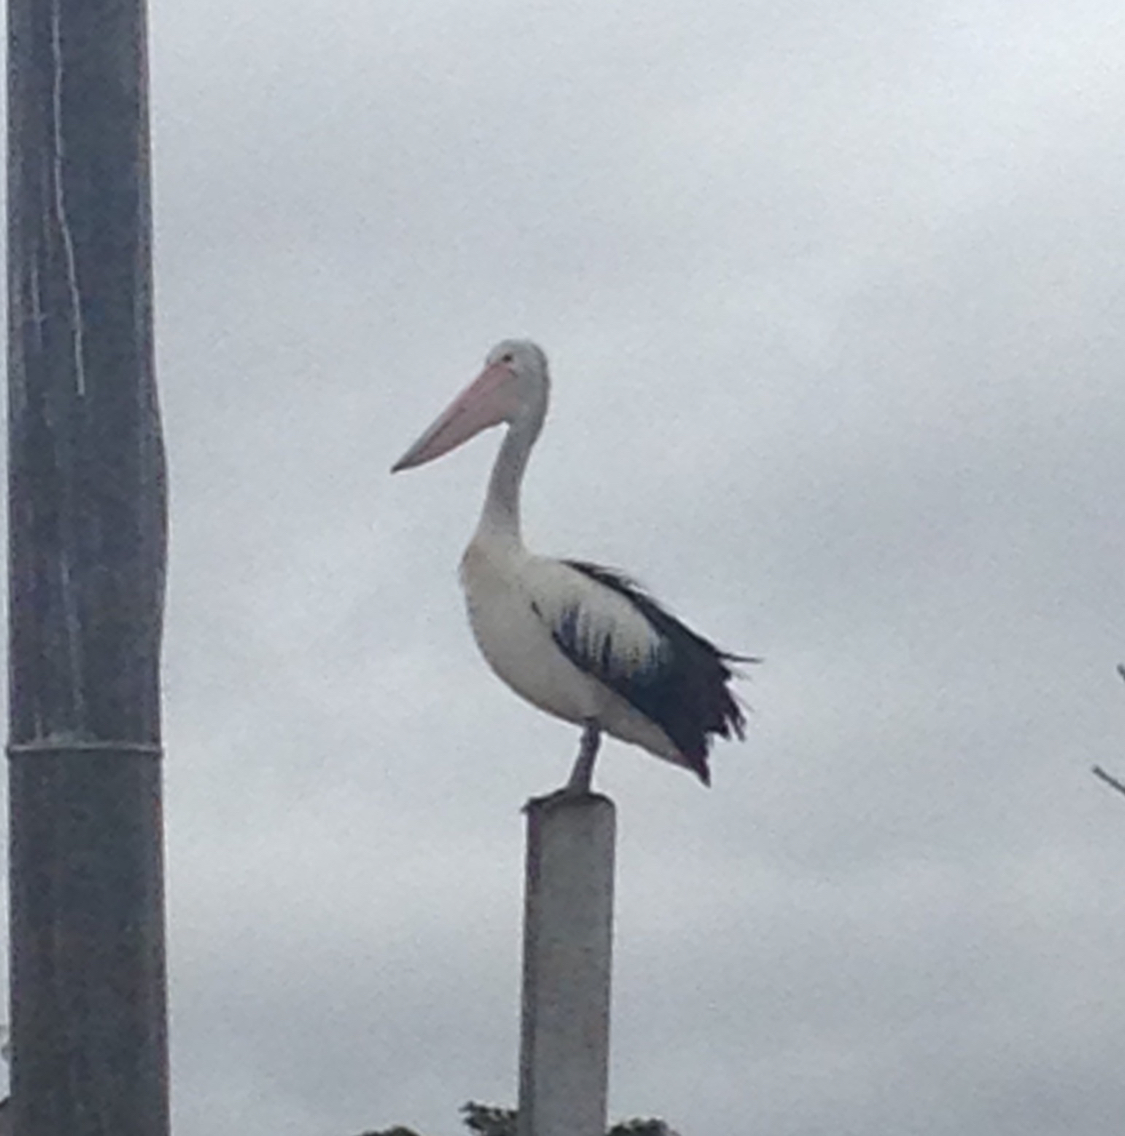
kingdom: Animalia
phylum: Chordata
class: Aves
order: Pelecaniformes
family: Pelecanidae
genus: Pelecanus
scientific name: Pelecanus conspicillatus
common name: Australian pelican
